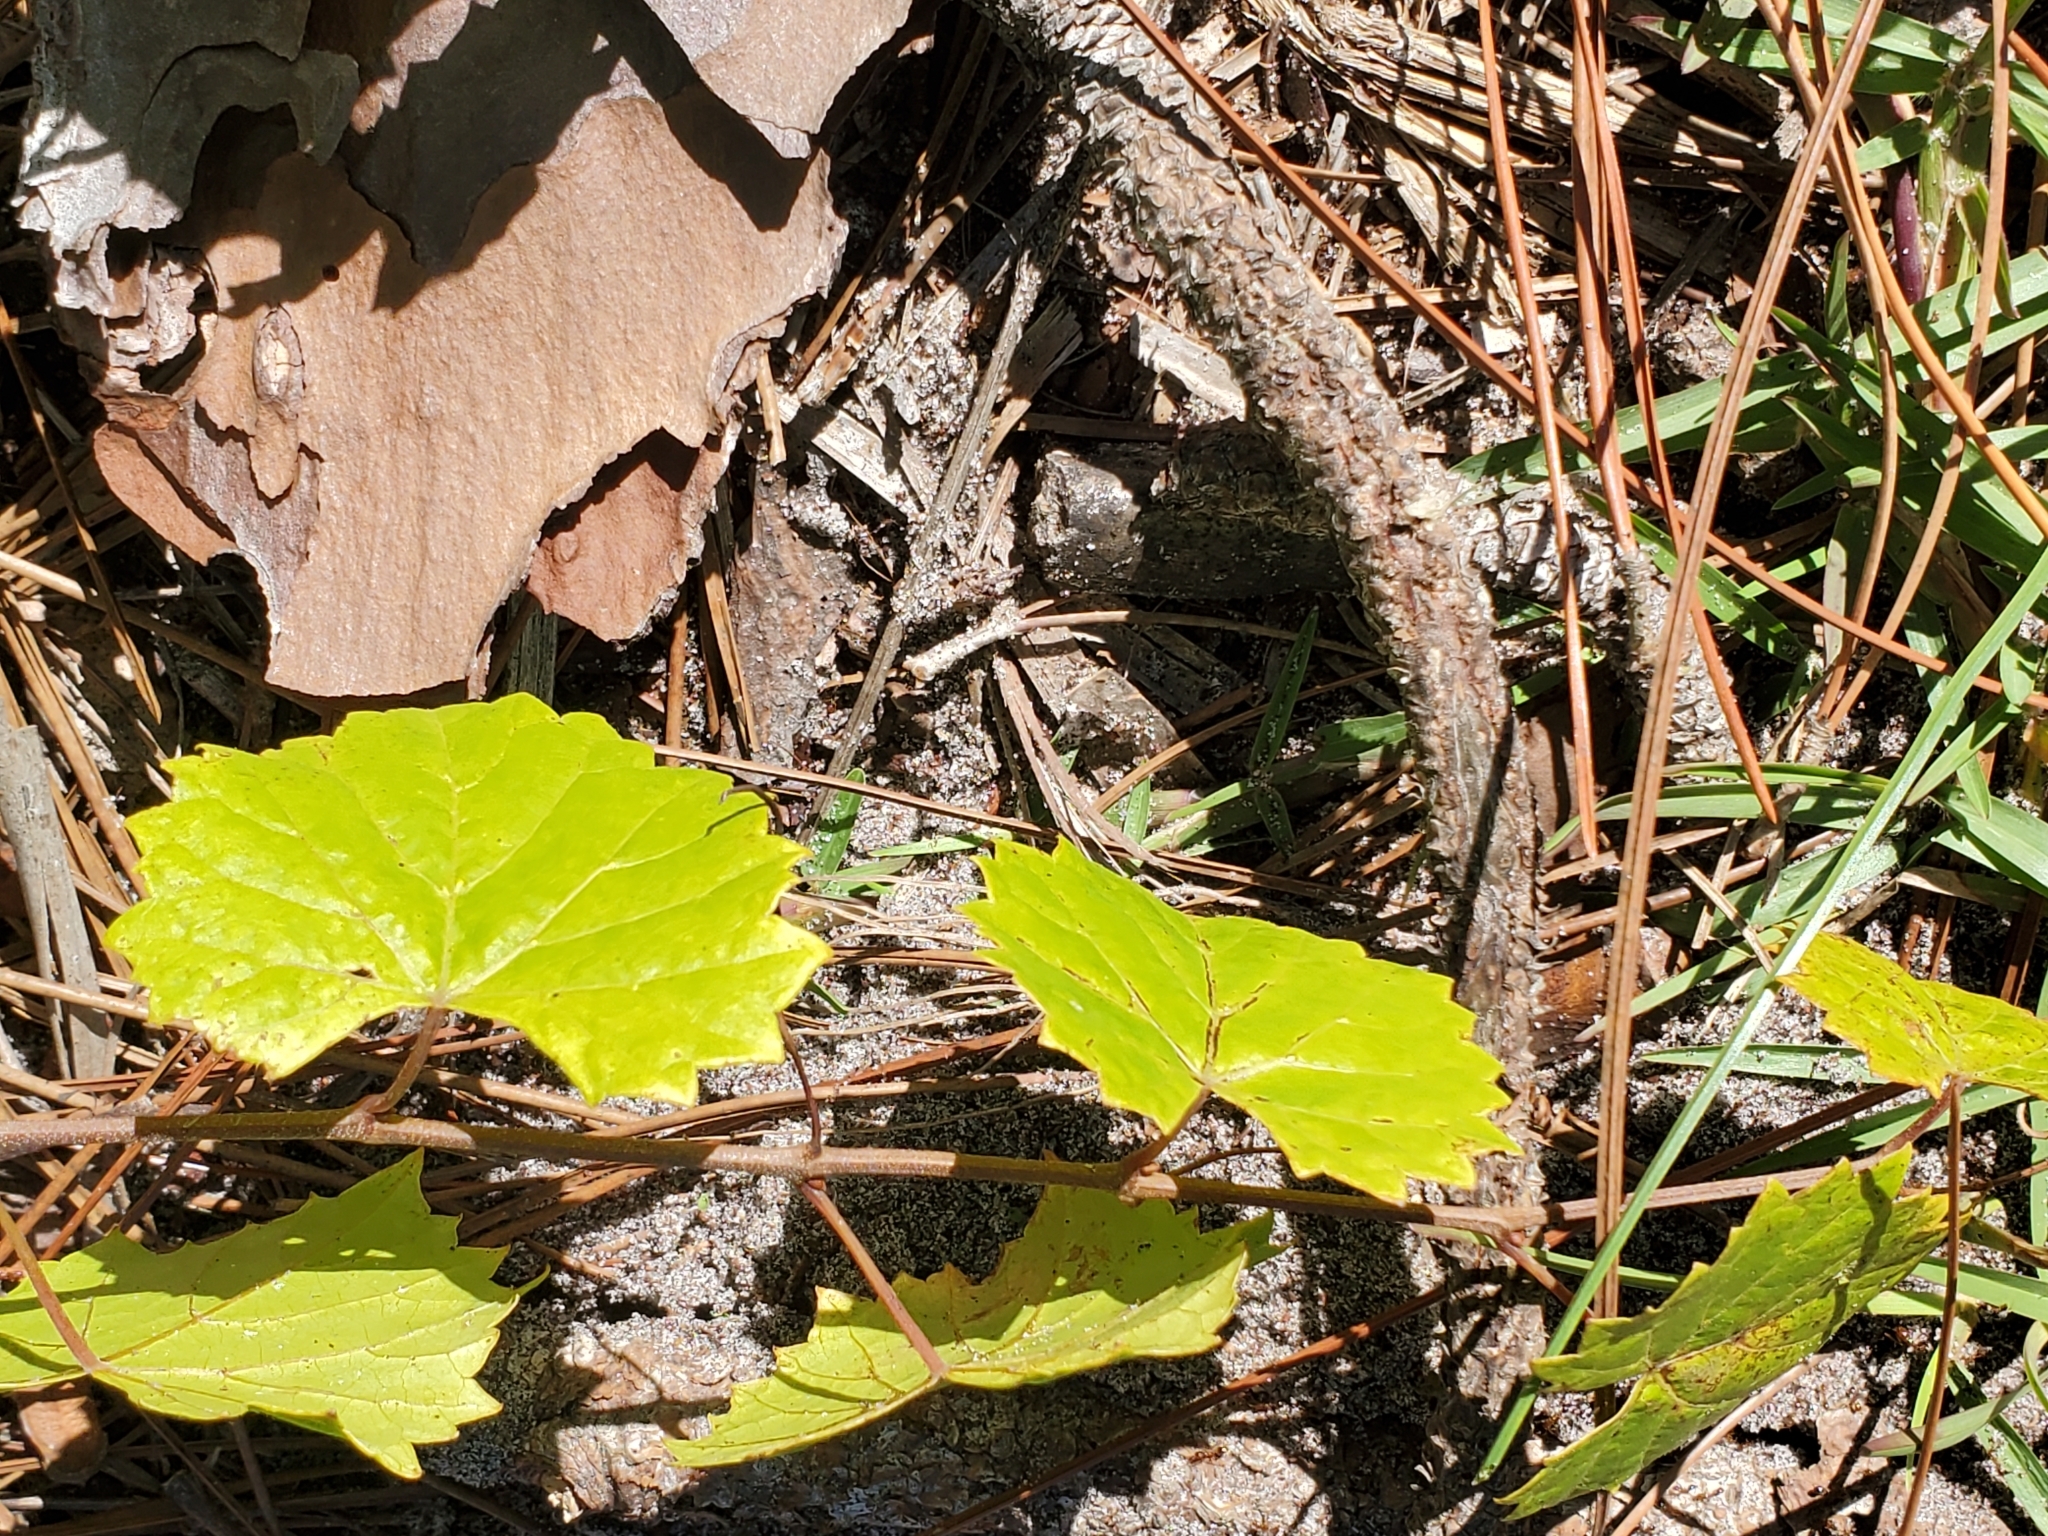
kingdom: Plantae
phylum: Tracheophyta
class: Magnoliopsida
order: Vitales
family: Vitaceae
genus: Vitis
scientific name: Vitis rotundifolia
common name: Muscadine grape
